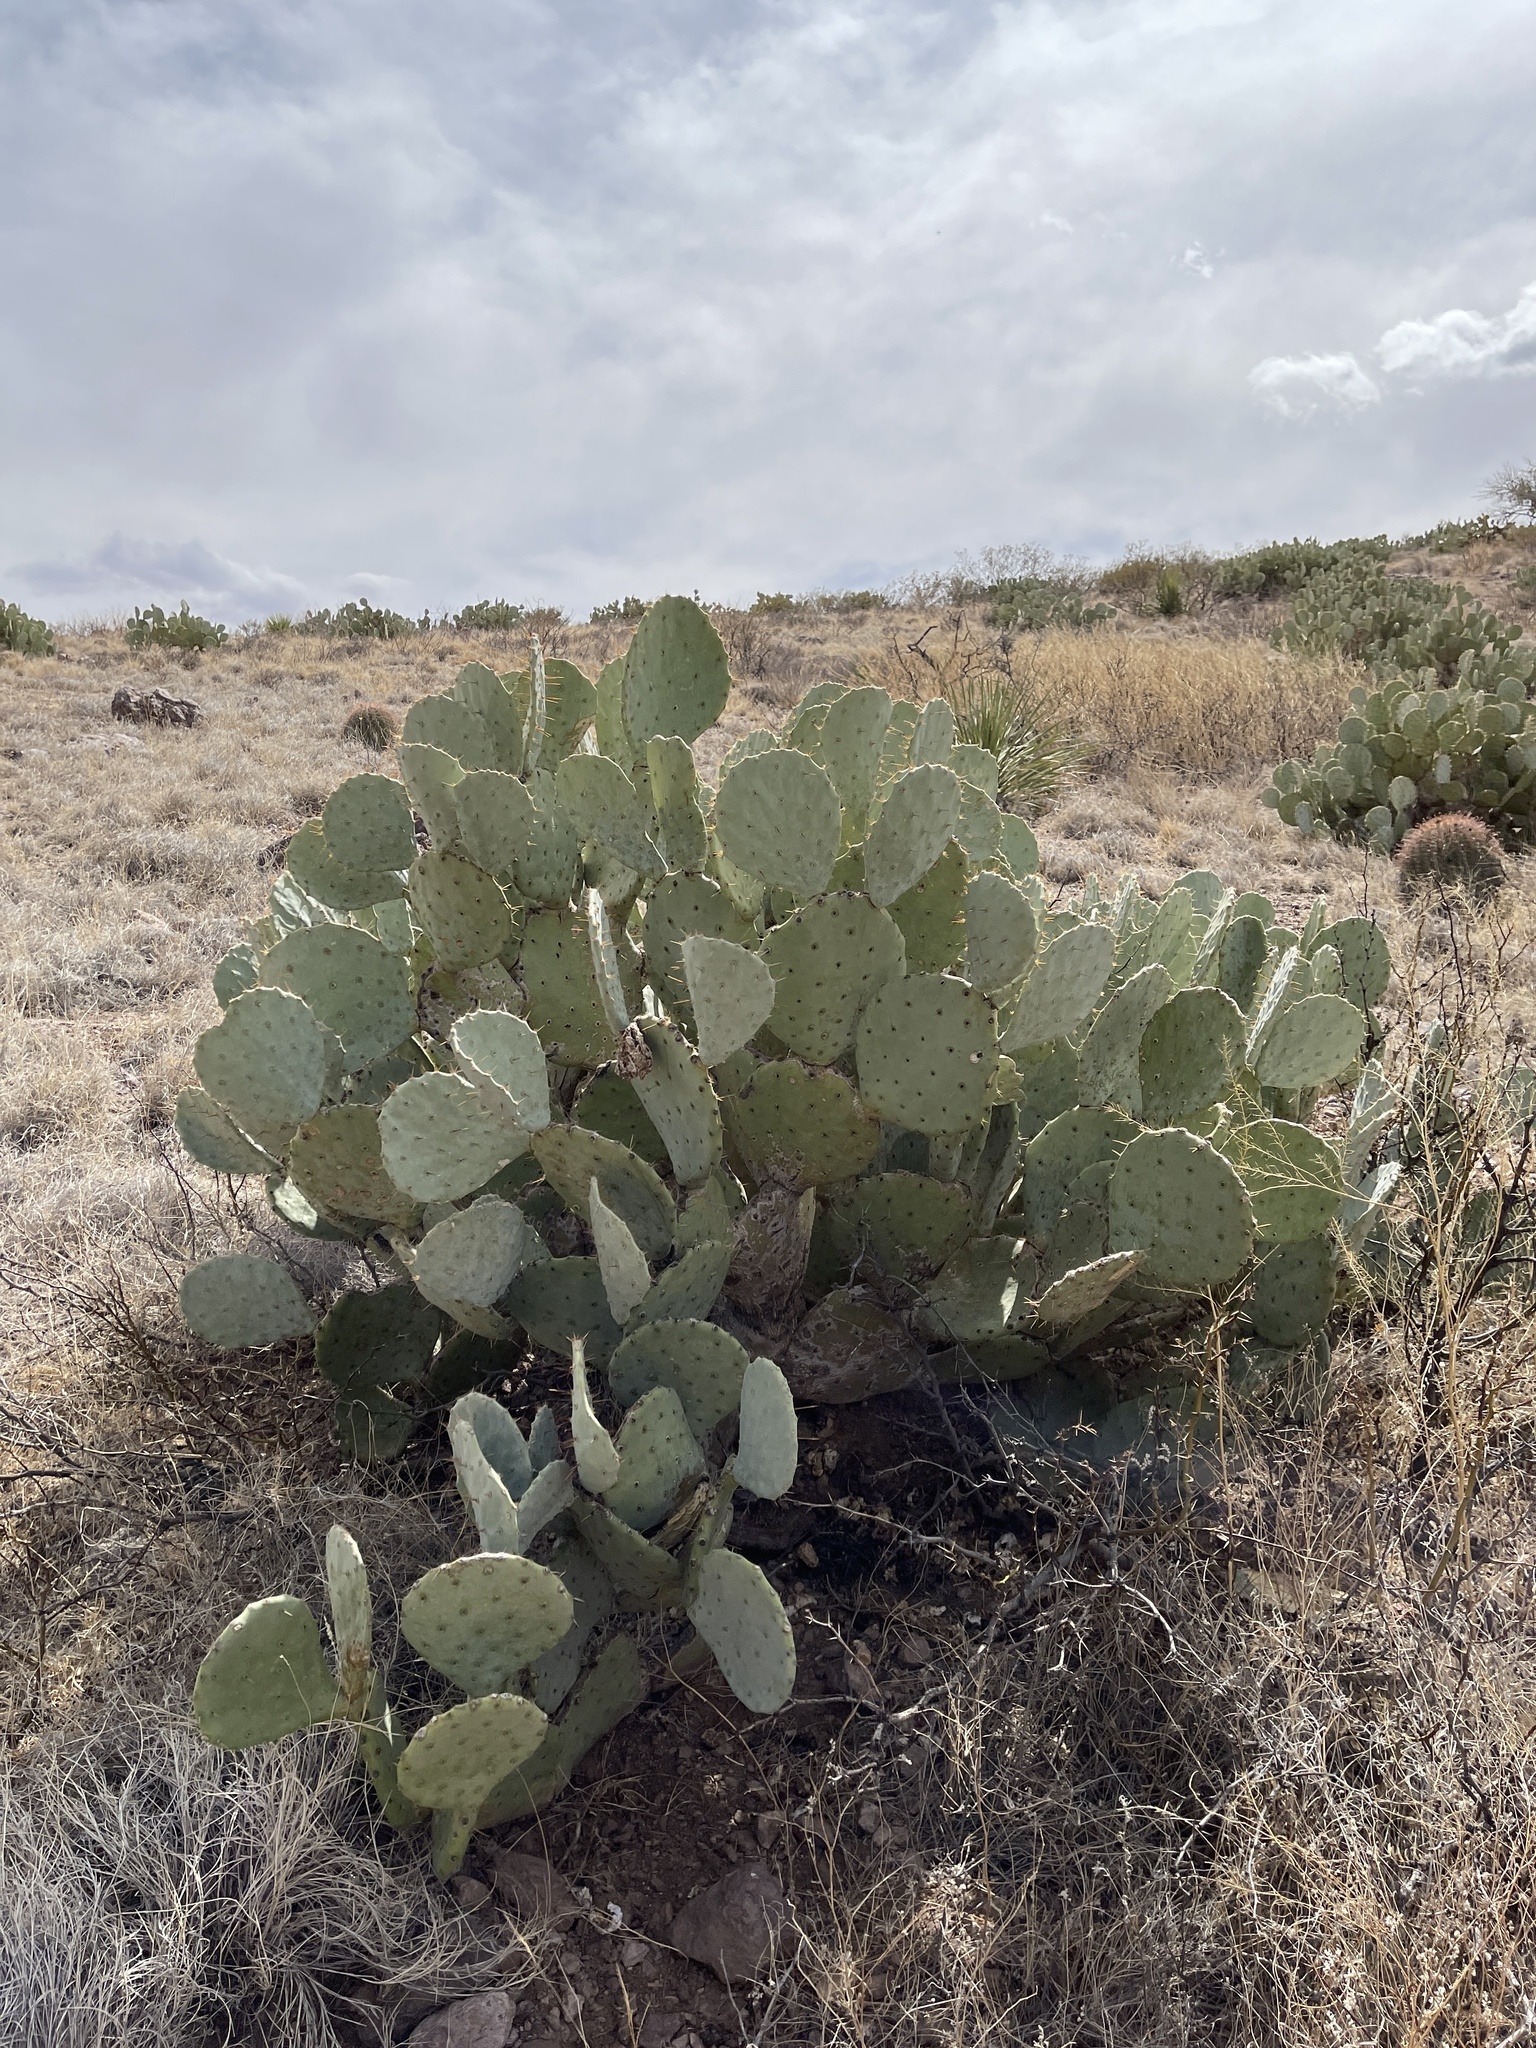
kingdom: Plantae
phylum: Tracheophyta
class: Magnoliopsida
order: Caryophyllales
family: Cactaceae
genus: Opuntia
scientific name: Opuntia engelmannii
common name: Cactus-apple
